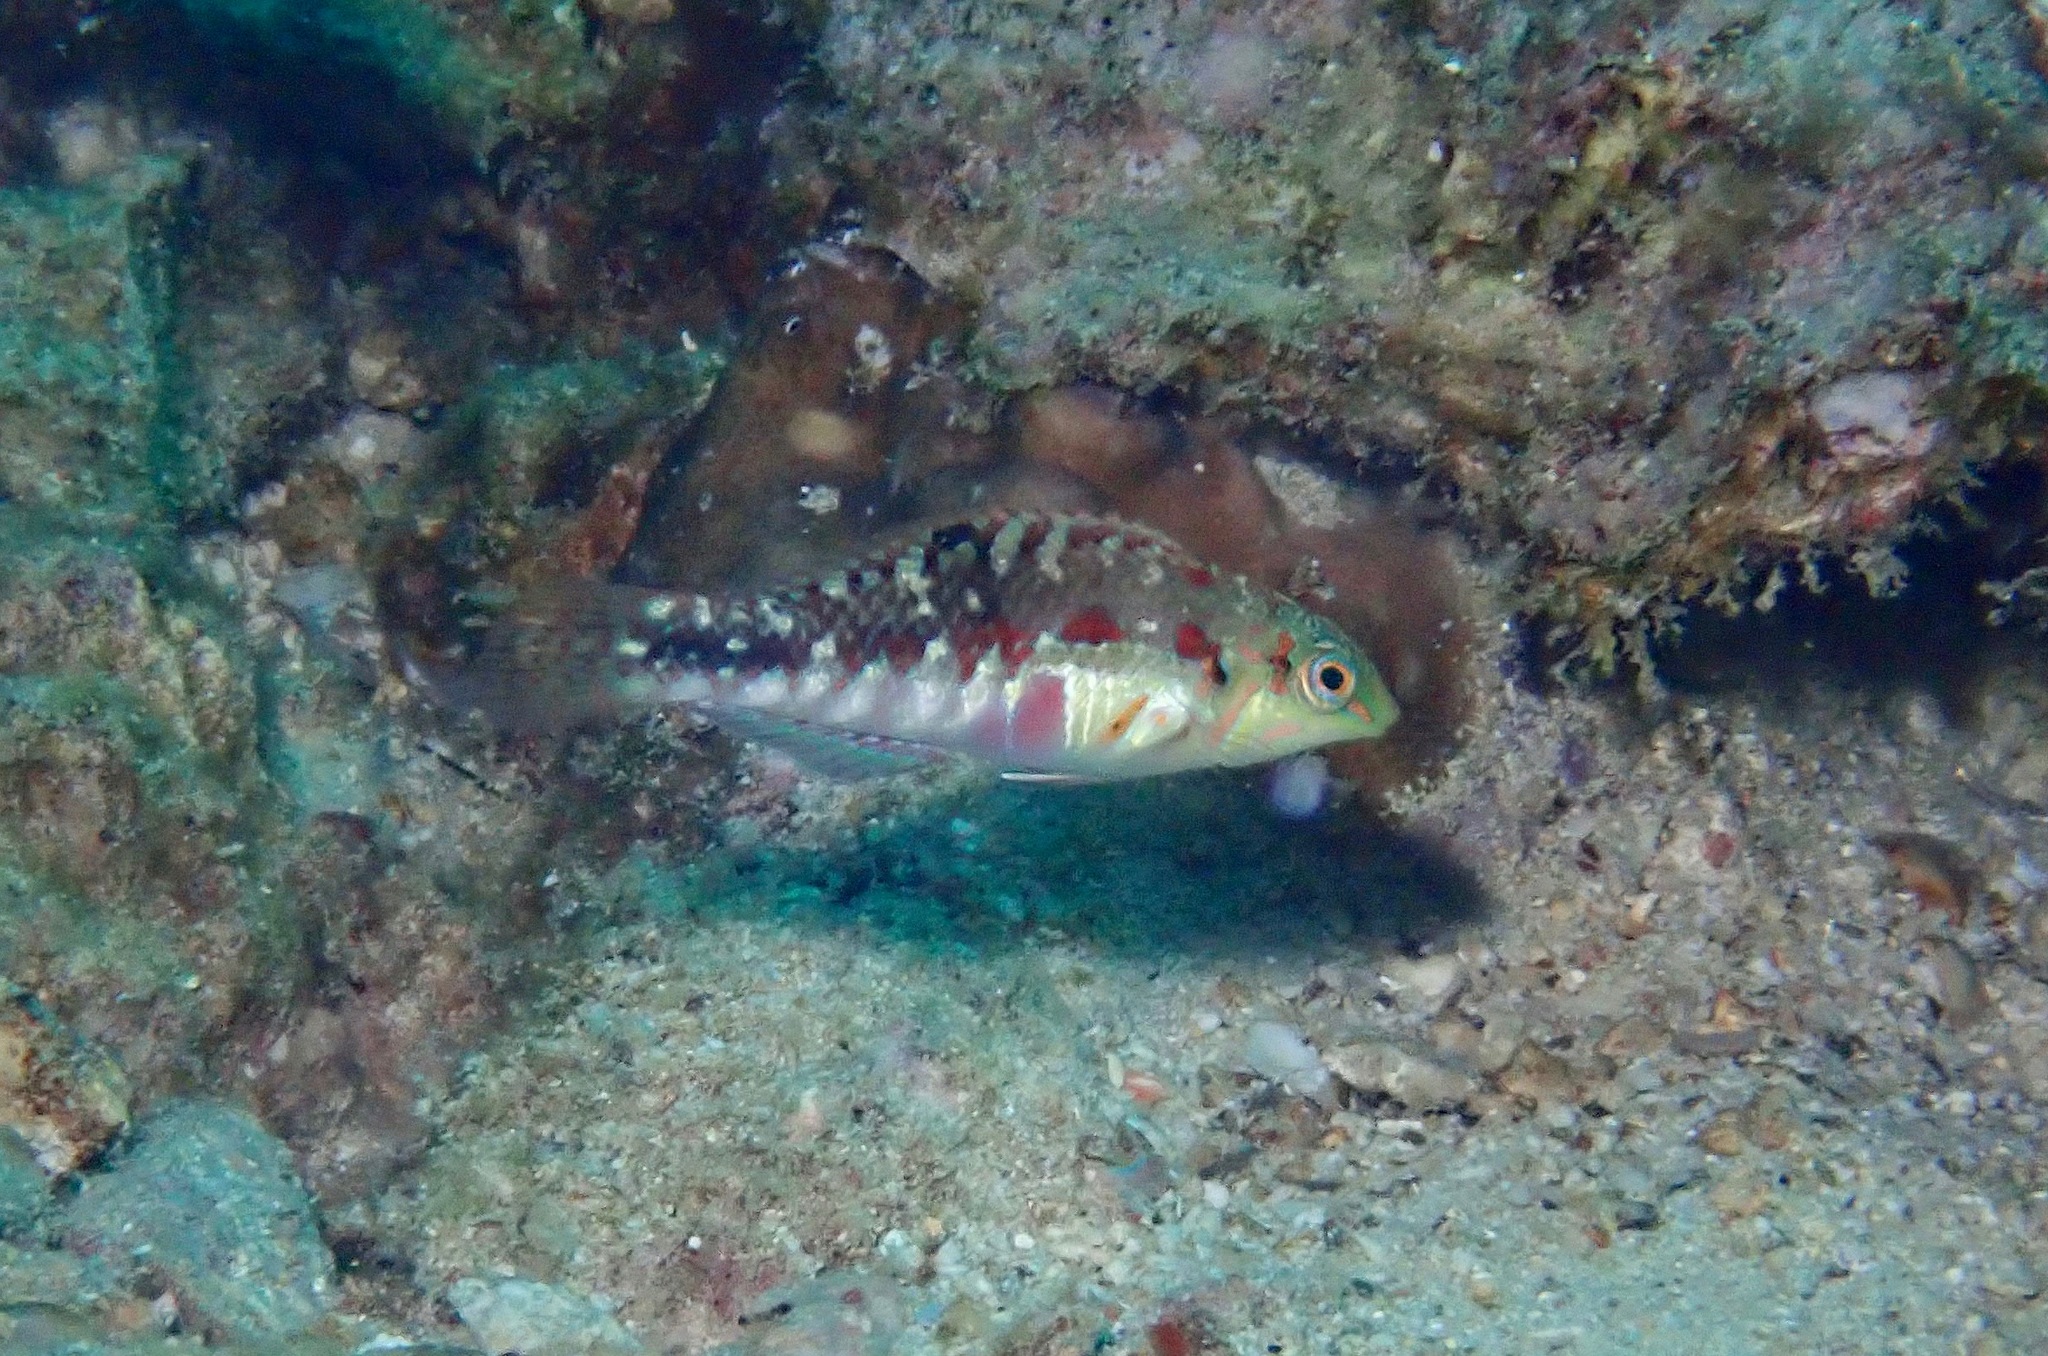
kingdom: Animalia
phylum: Chordata
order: Perciformes
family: Labridae
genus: Halichoeres
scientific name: Halichoeres nebulosus
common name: Clouded wrasse
